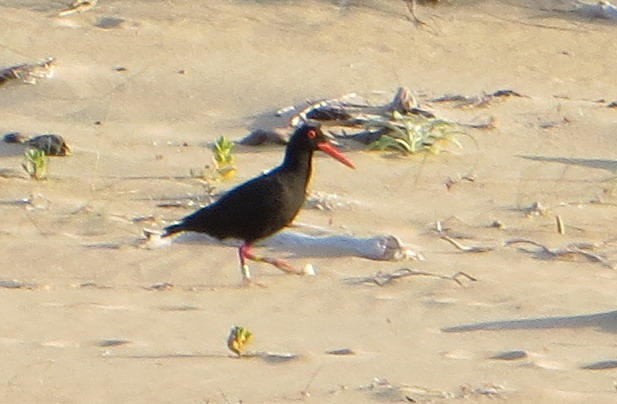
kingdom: Animalia
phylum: Chordata
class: Aves
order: Charadriiformes
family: Haematopodidae
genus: Haematopus
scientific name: Haematopus moquini
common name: African oystercatcher
